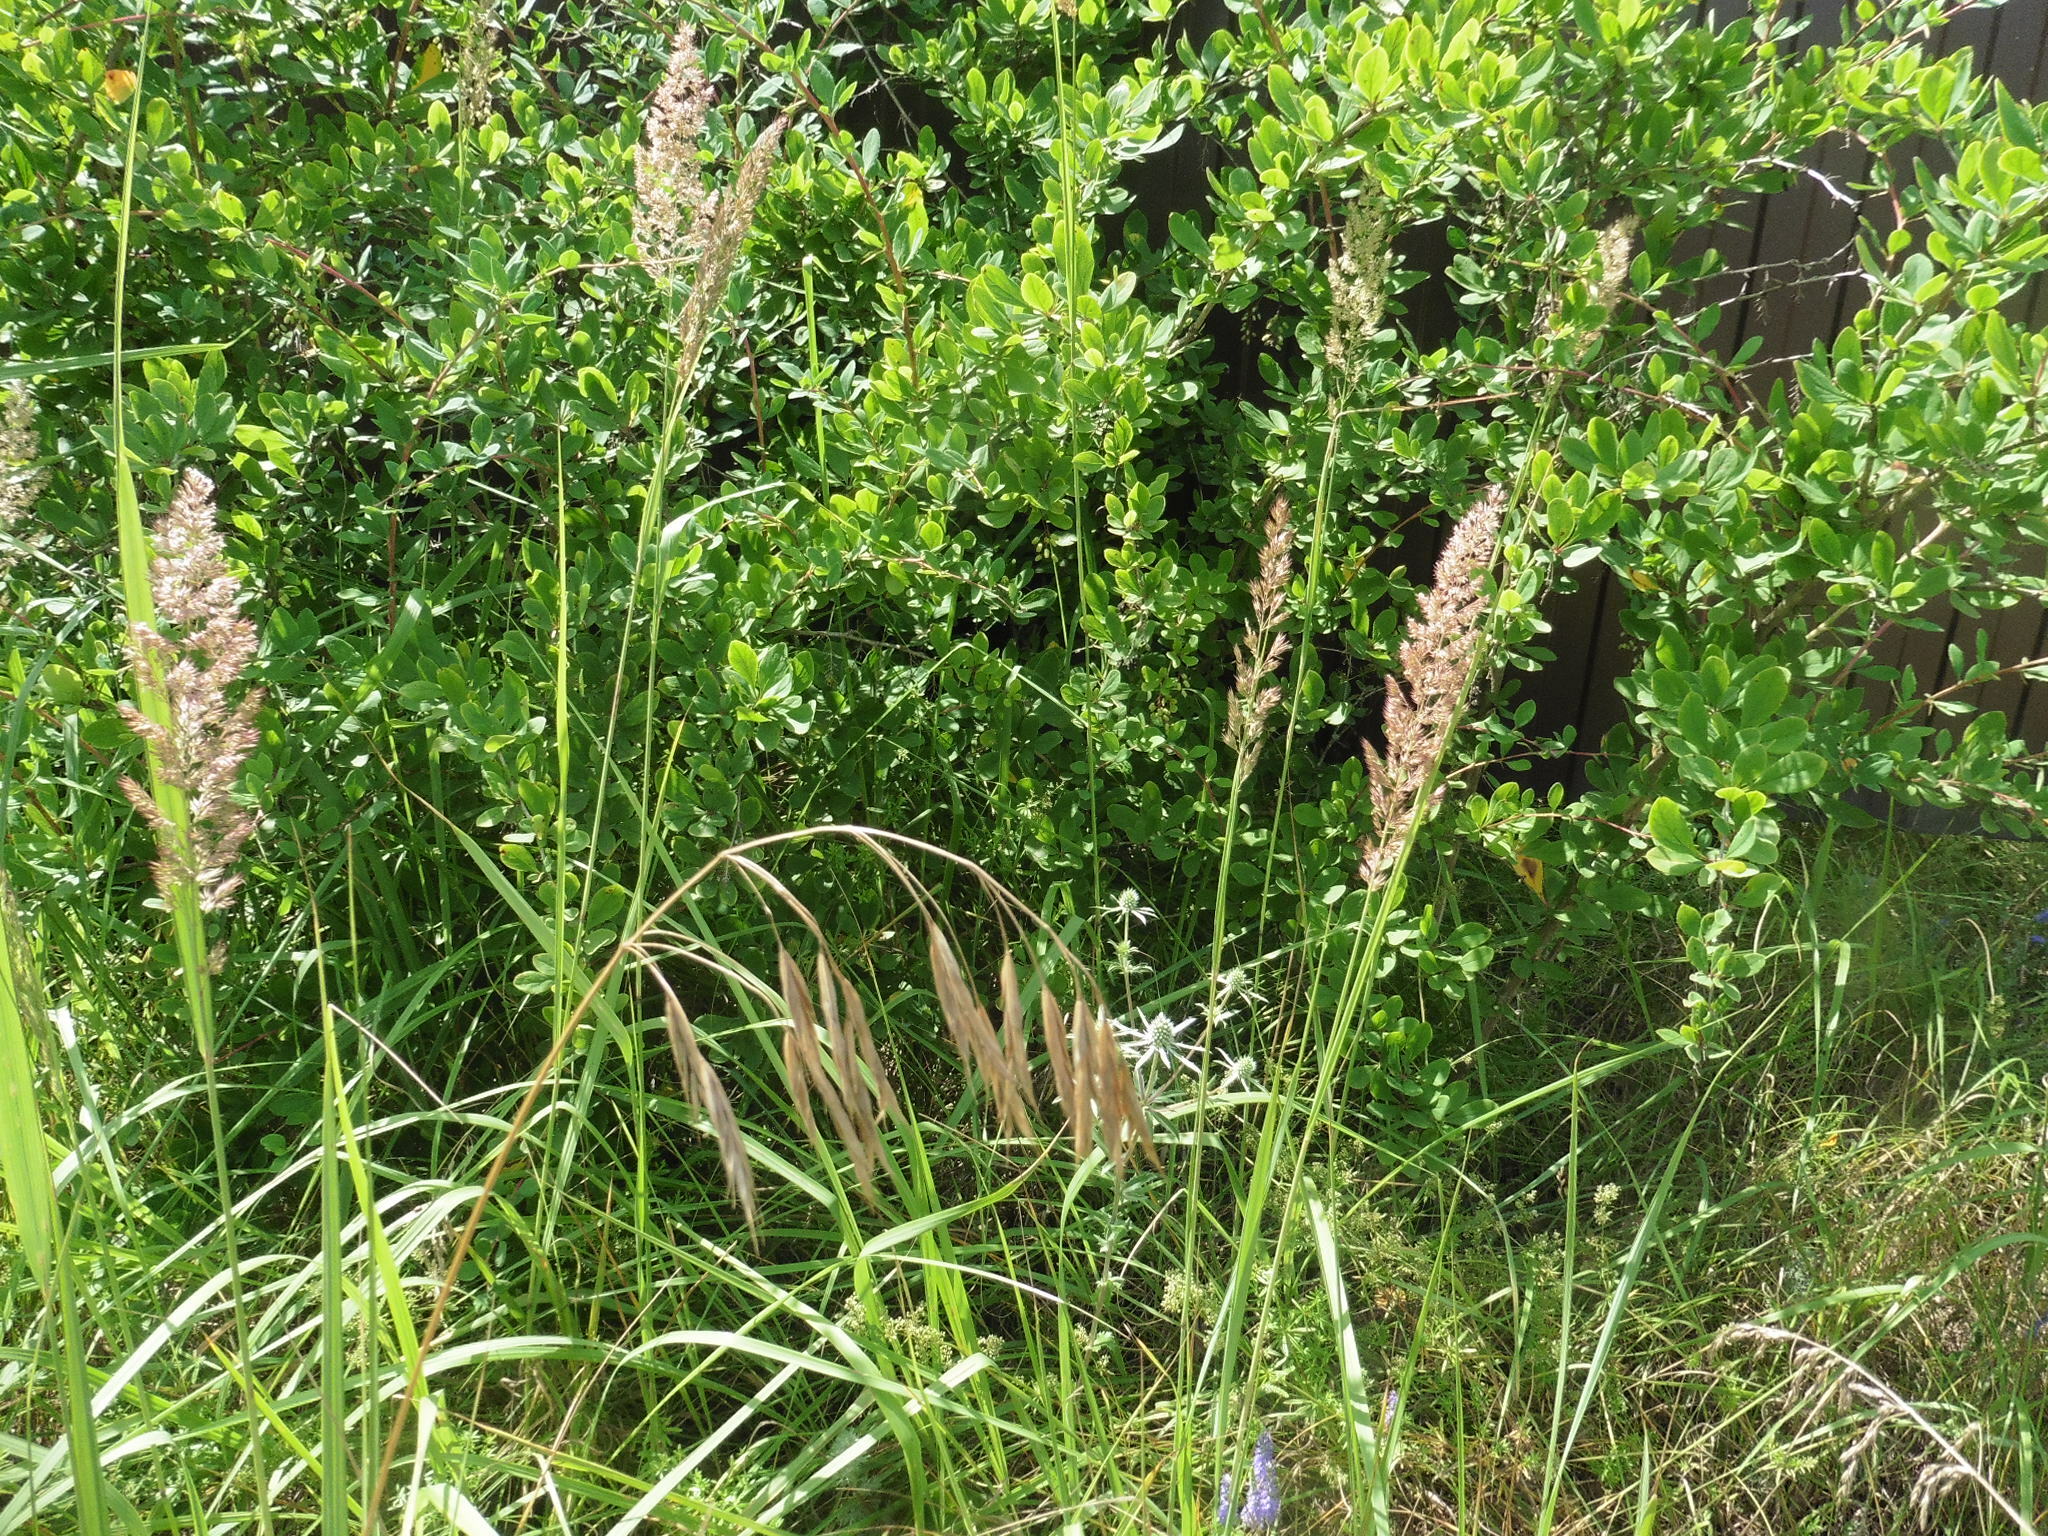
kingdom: Plantae
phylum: Tracheophyta
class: Liliopsida
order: Poales
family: Poaceae
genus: Calamagrostis
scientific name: Calamagrostis epigejos
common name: Wood small-reed
